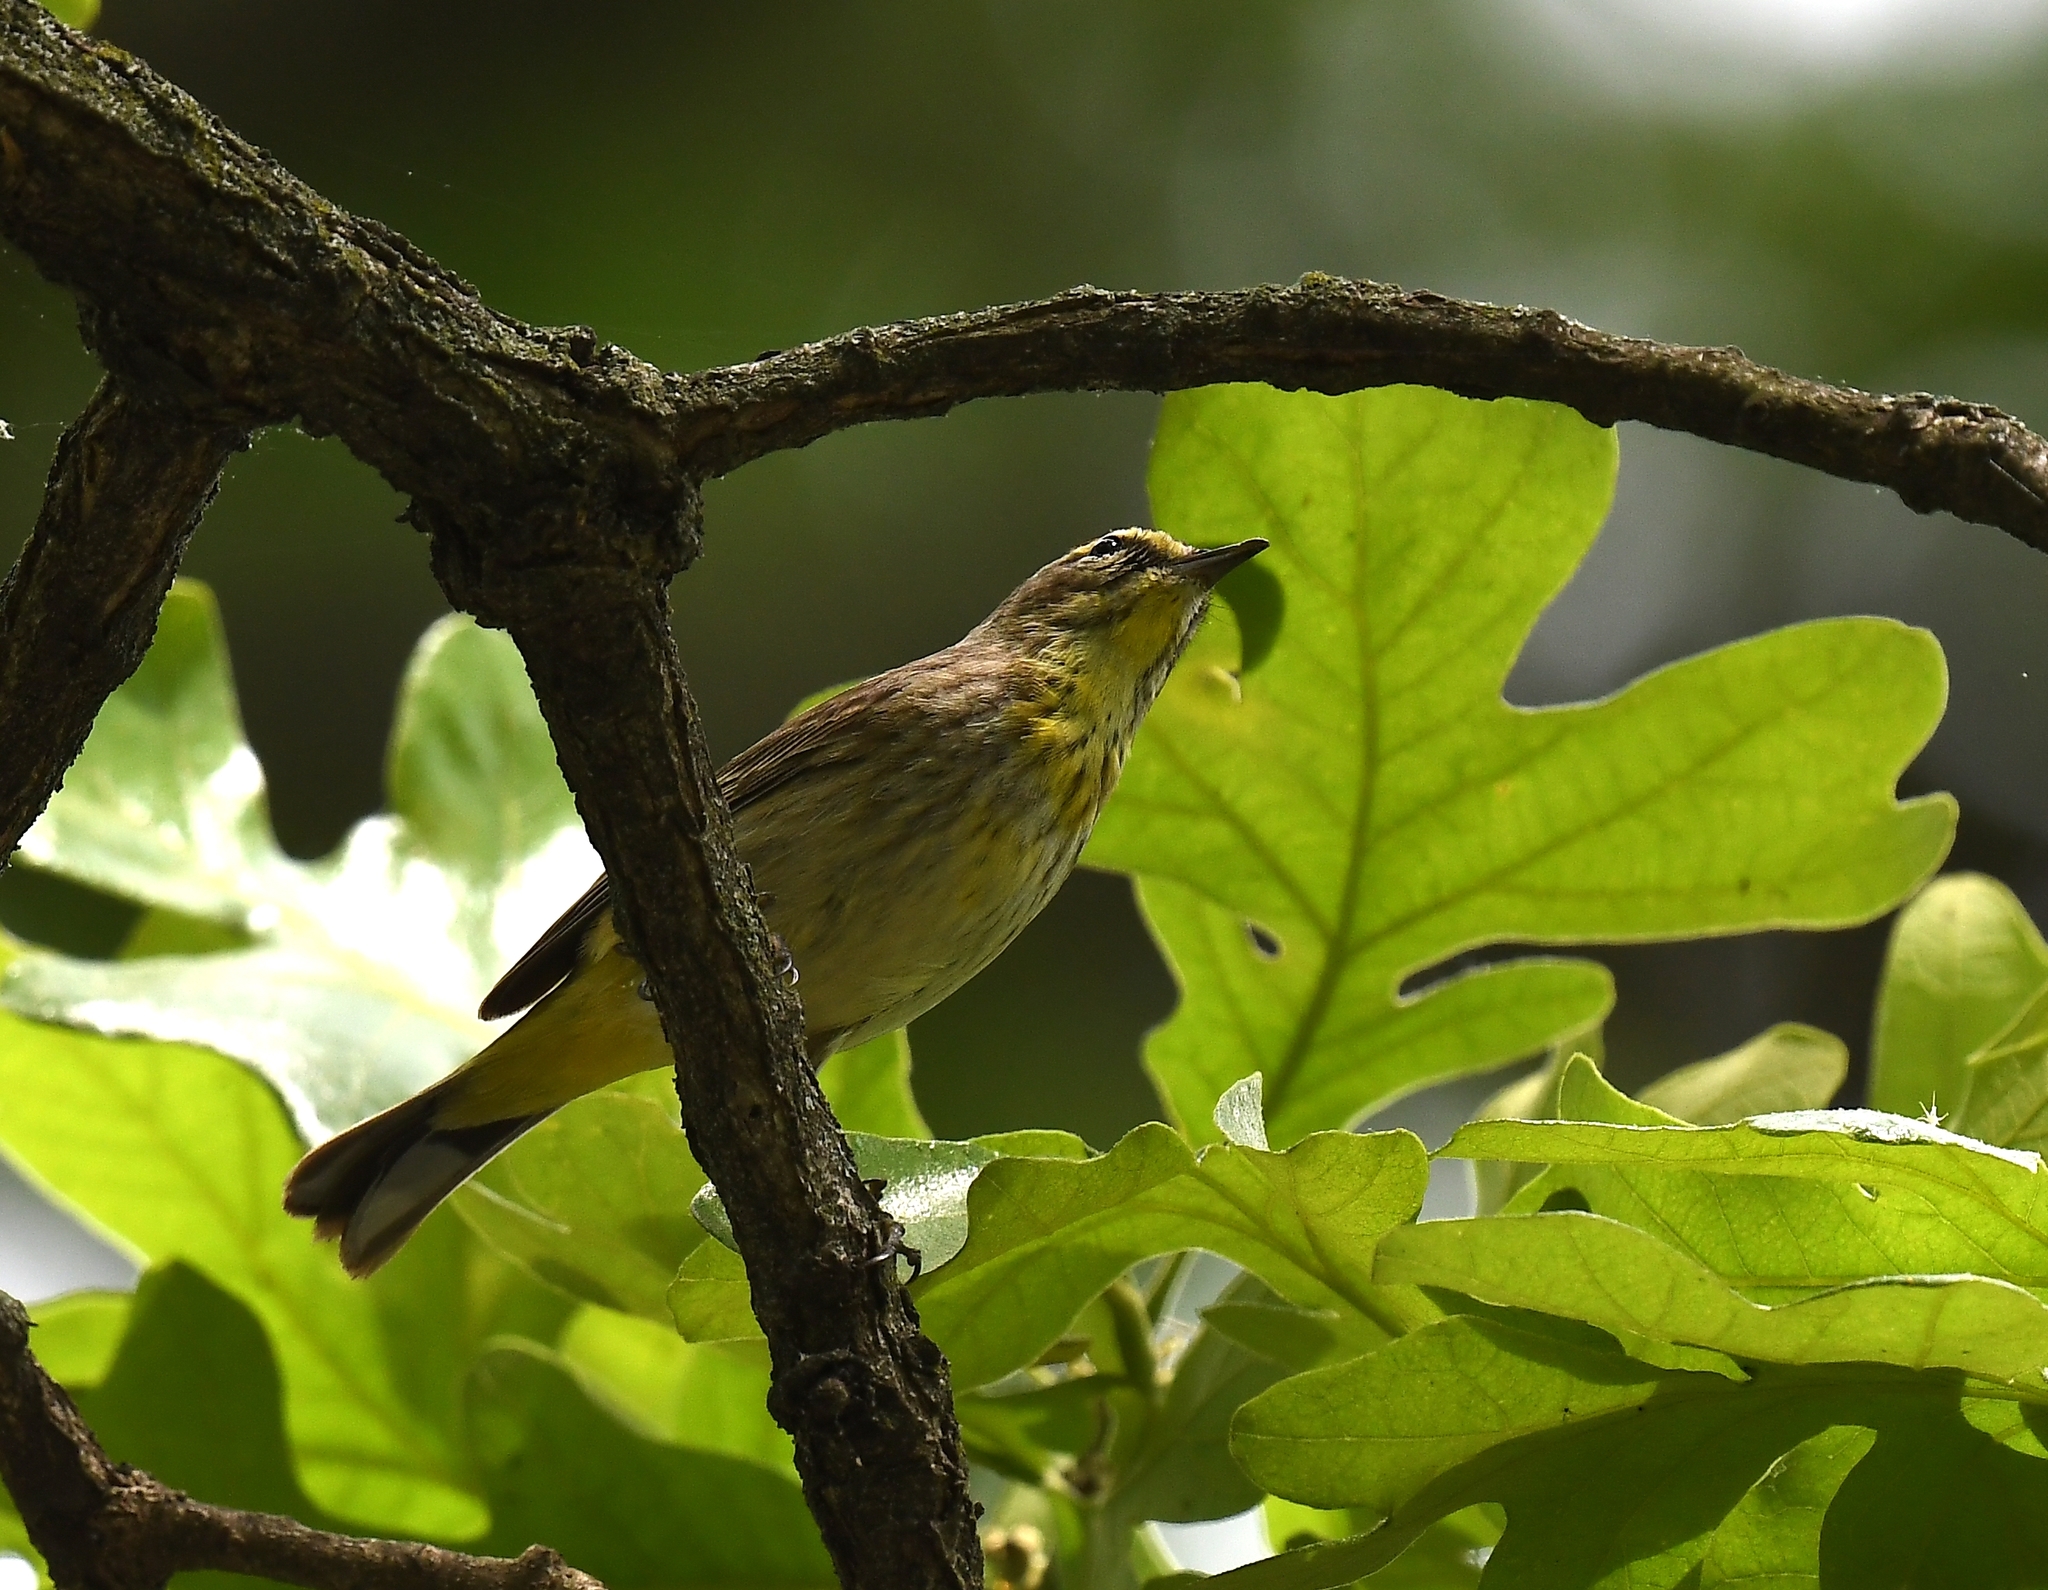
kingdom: Animalia
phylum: Chordata
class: Aves
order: Passeriformes
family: Parulidae
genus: Setophaga
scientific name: Setophaga palmarum
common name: Palm warbler
